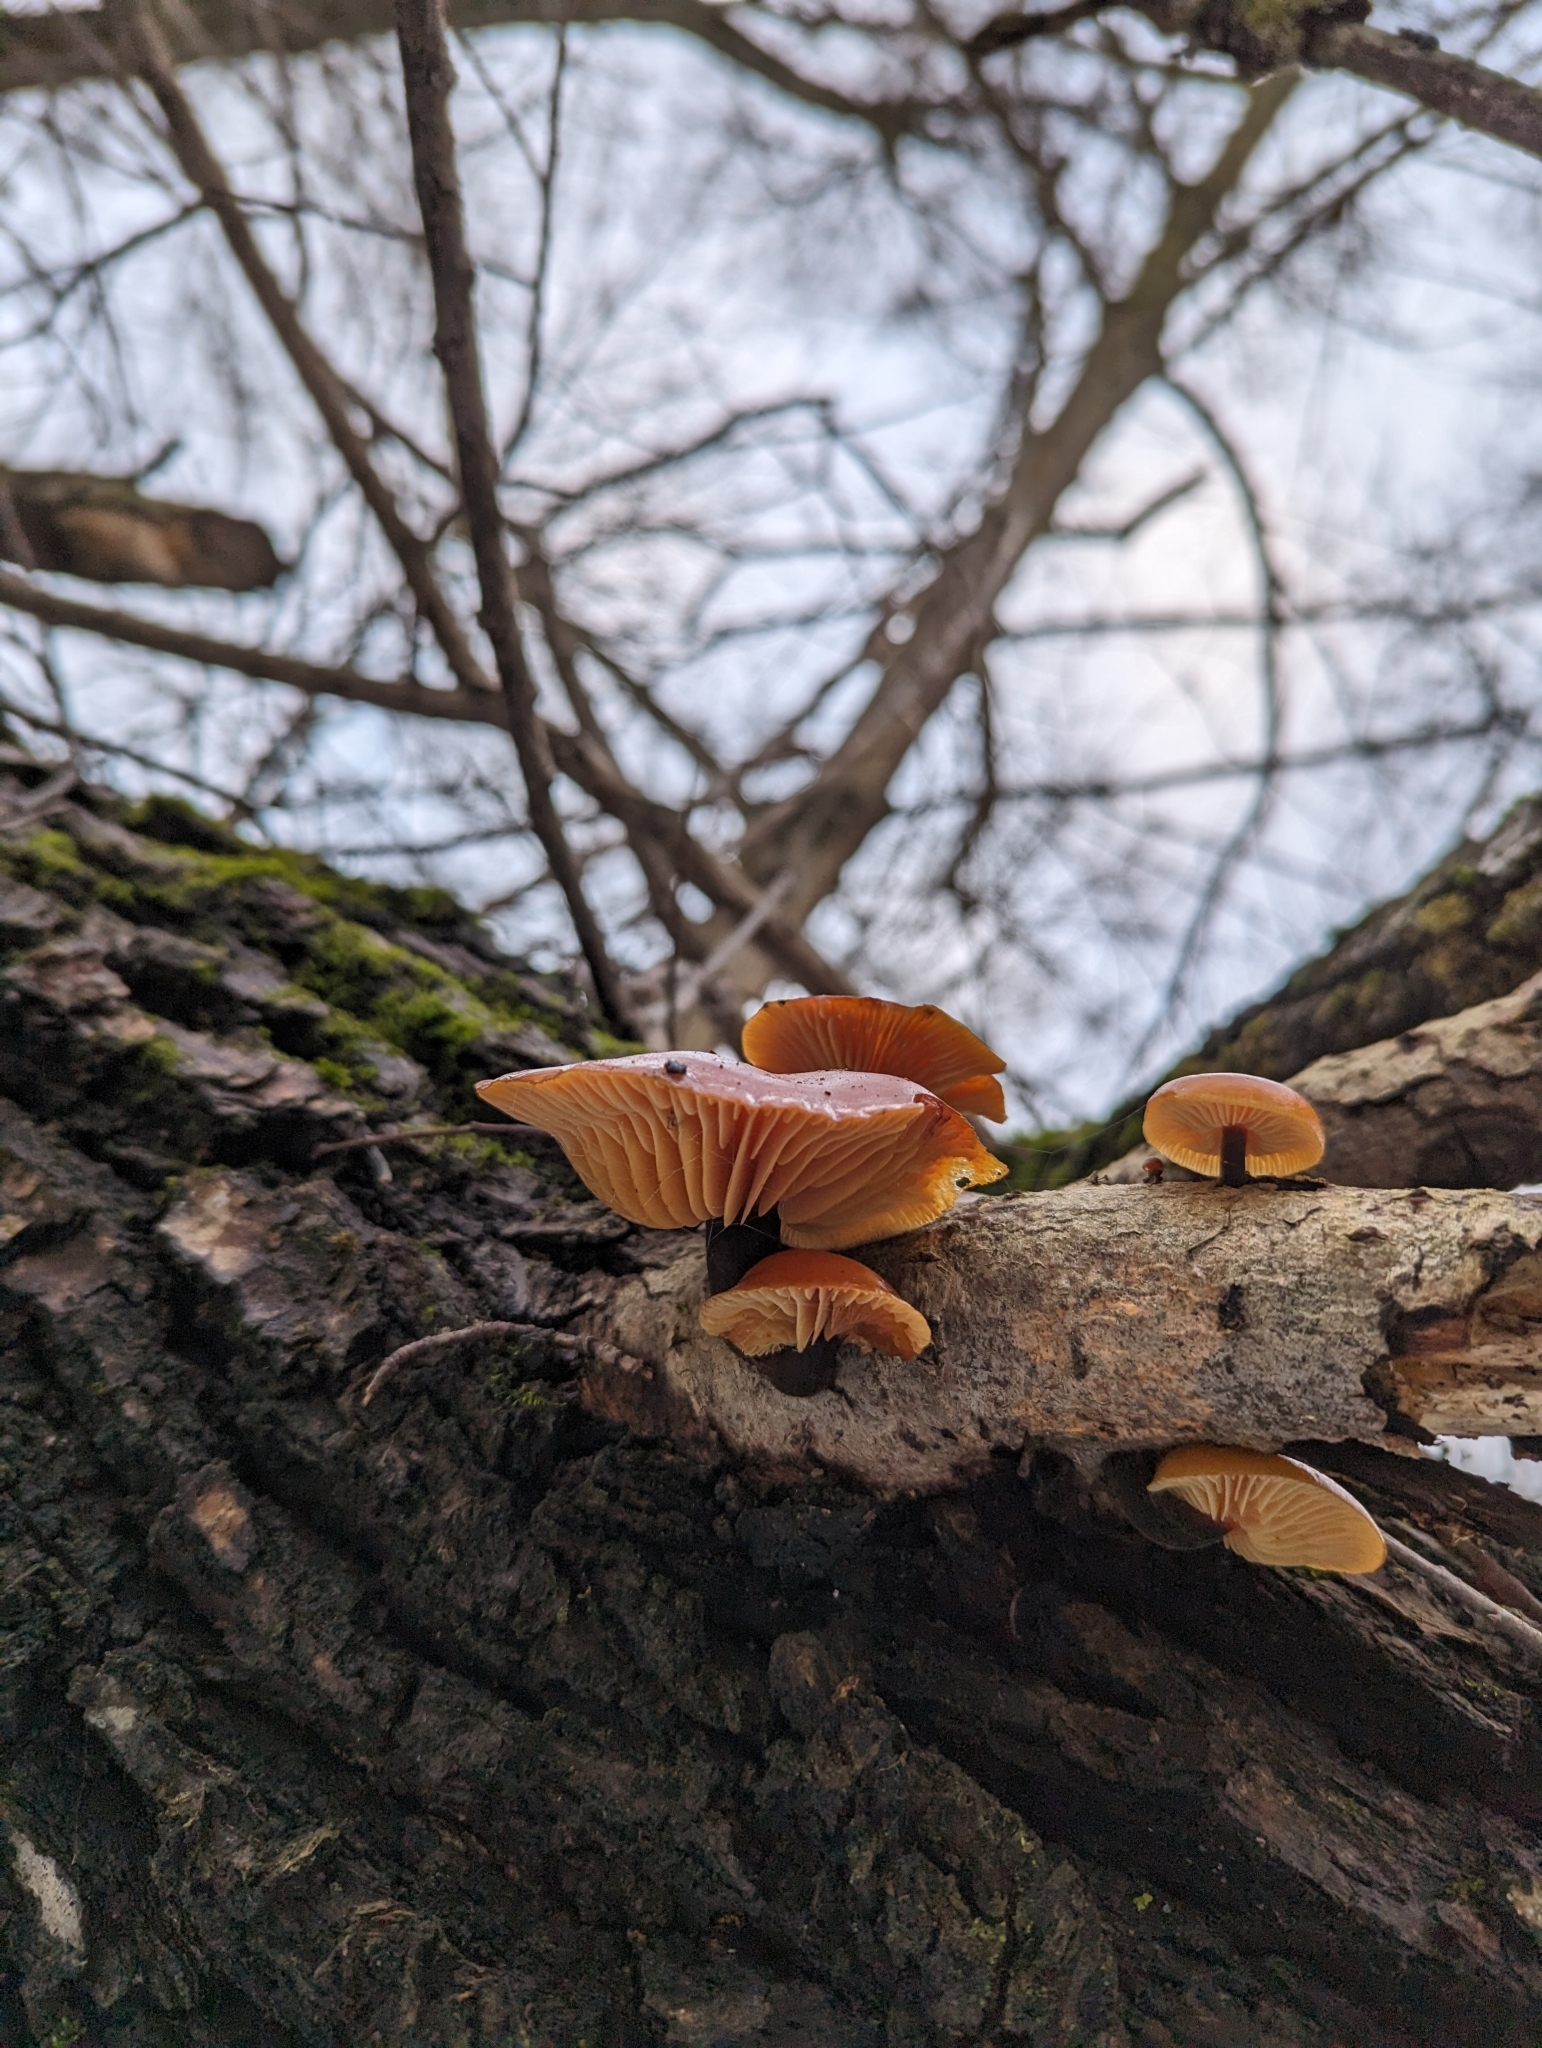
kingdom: Fungi
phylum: Basidiomycota
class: Agaricomycetes
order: Agaricales
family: Physalacriaceae
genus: Flammulina
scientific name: Flammulina
